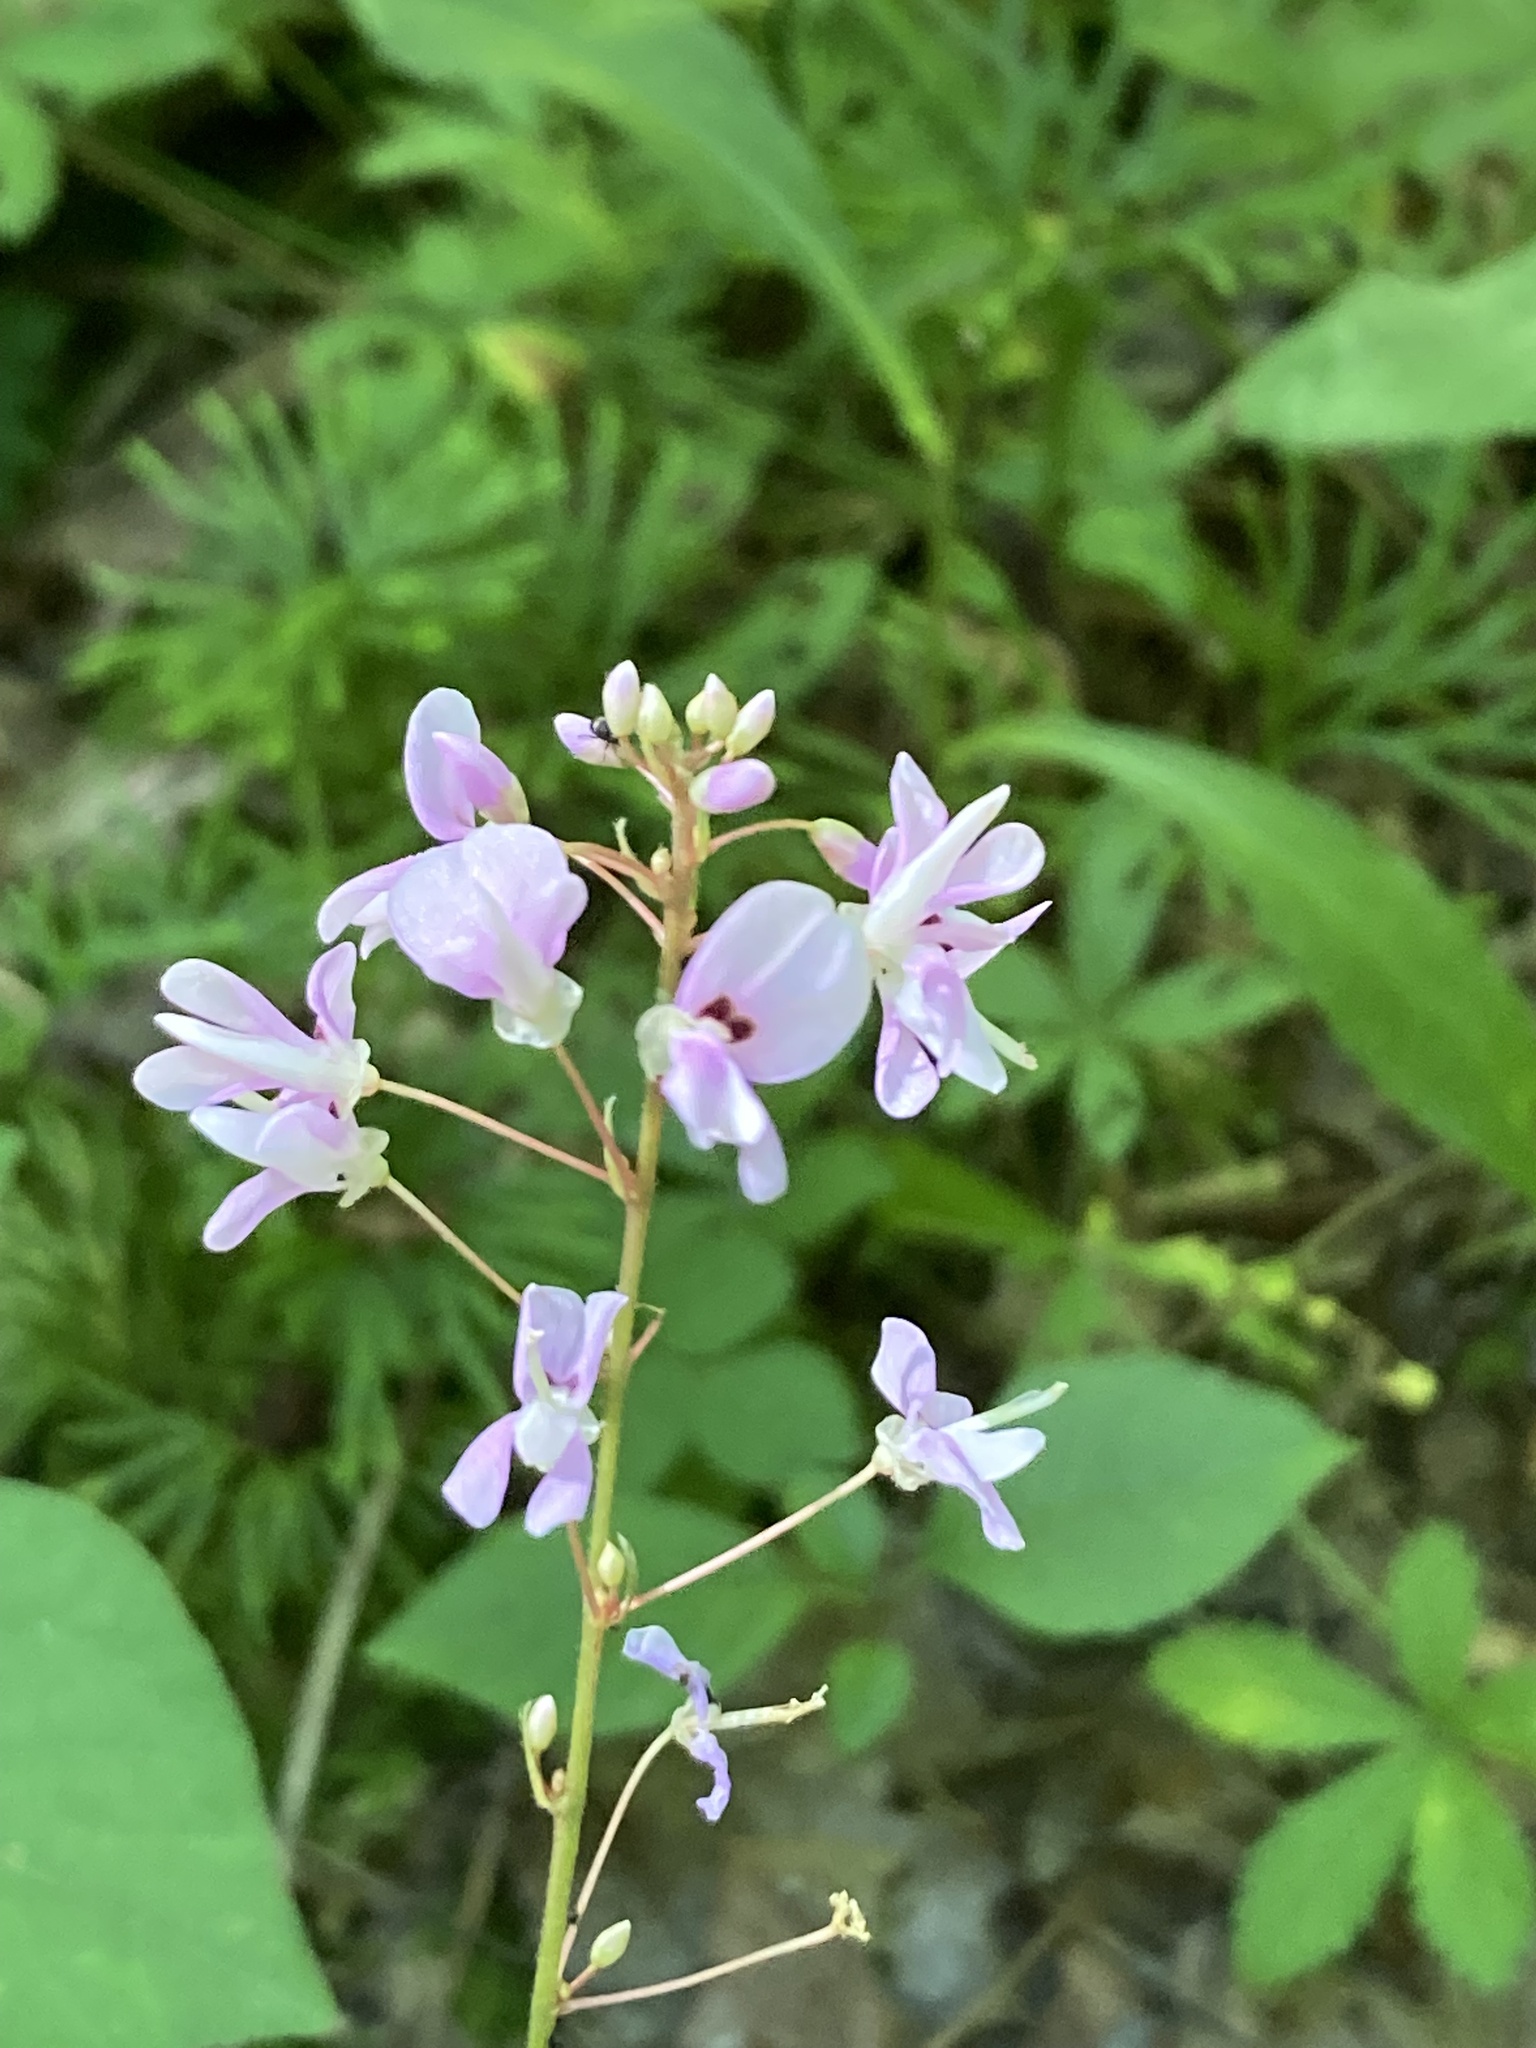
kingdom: Plantae
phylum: Tracheophyta
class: Magnoliopsida
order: Fabales
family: Fabaceae
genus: Hylodesmum
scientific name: Hylodesmum nudiflorum
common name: Bare-stemmed tick-trefoil
